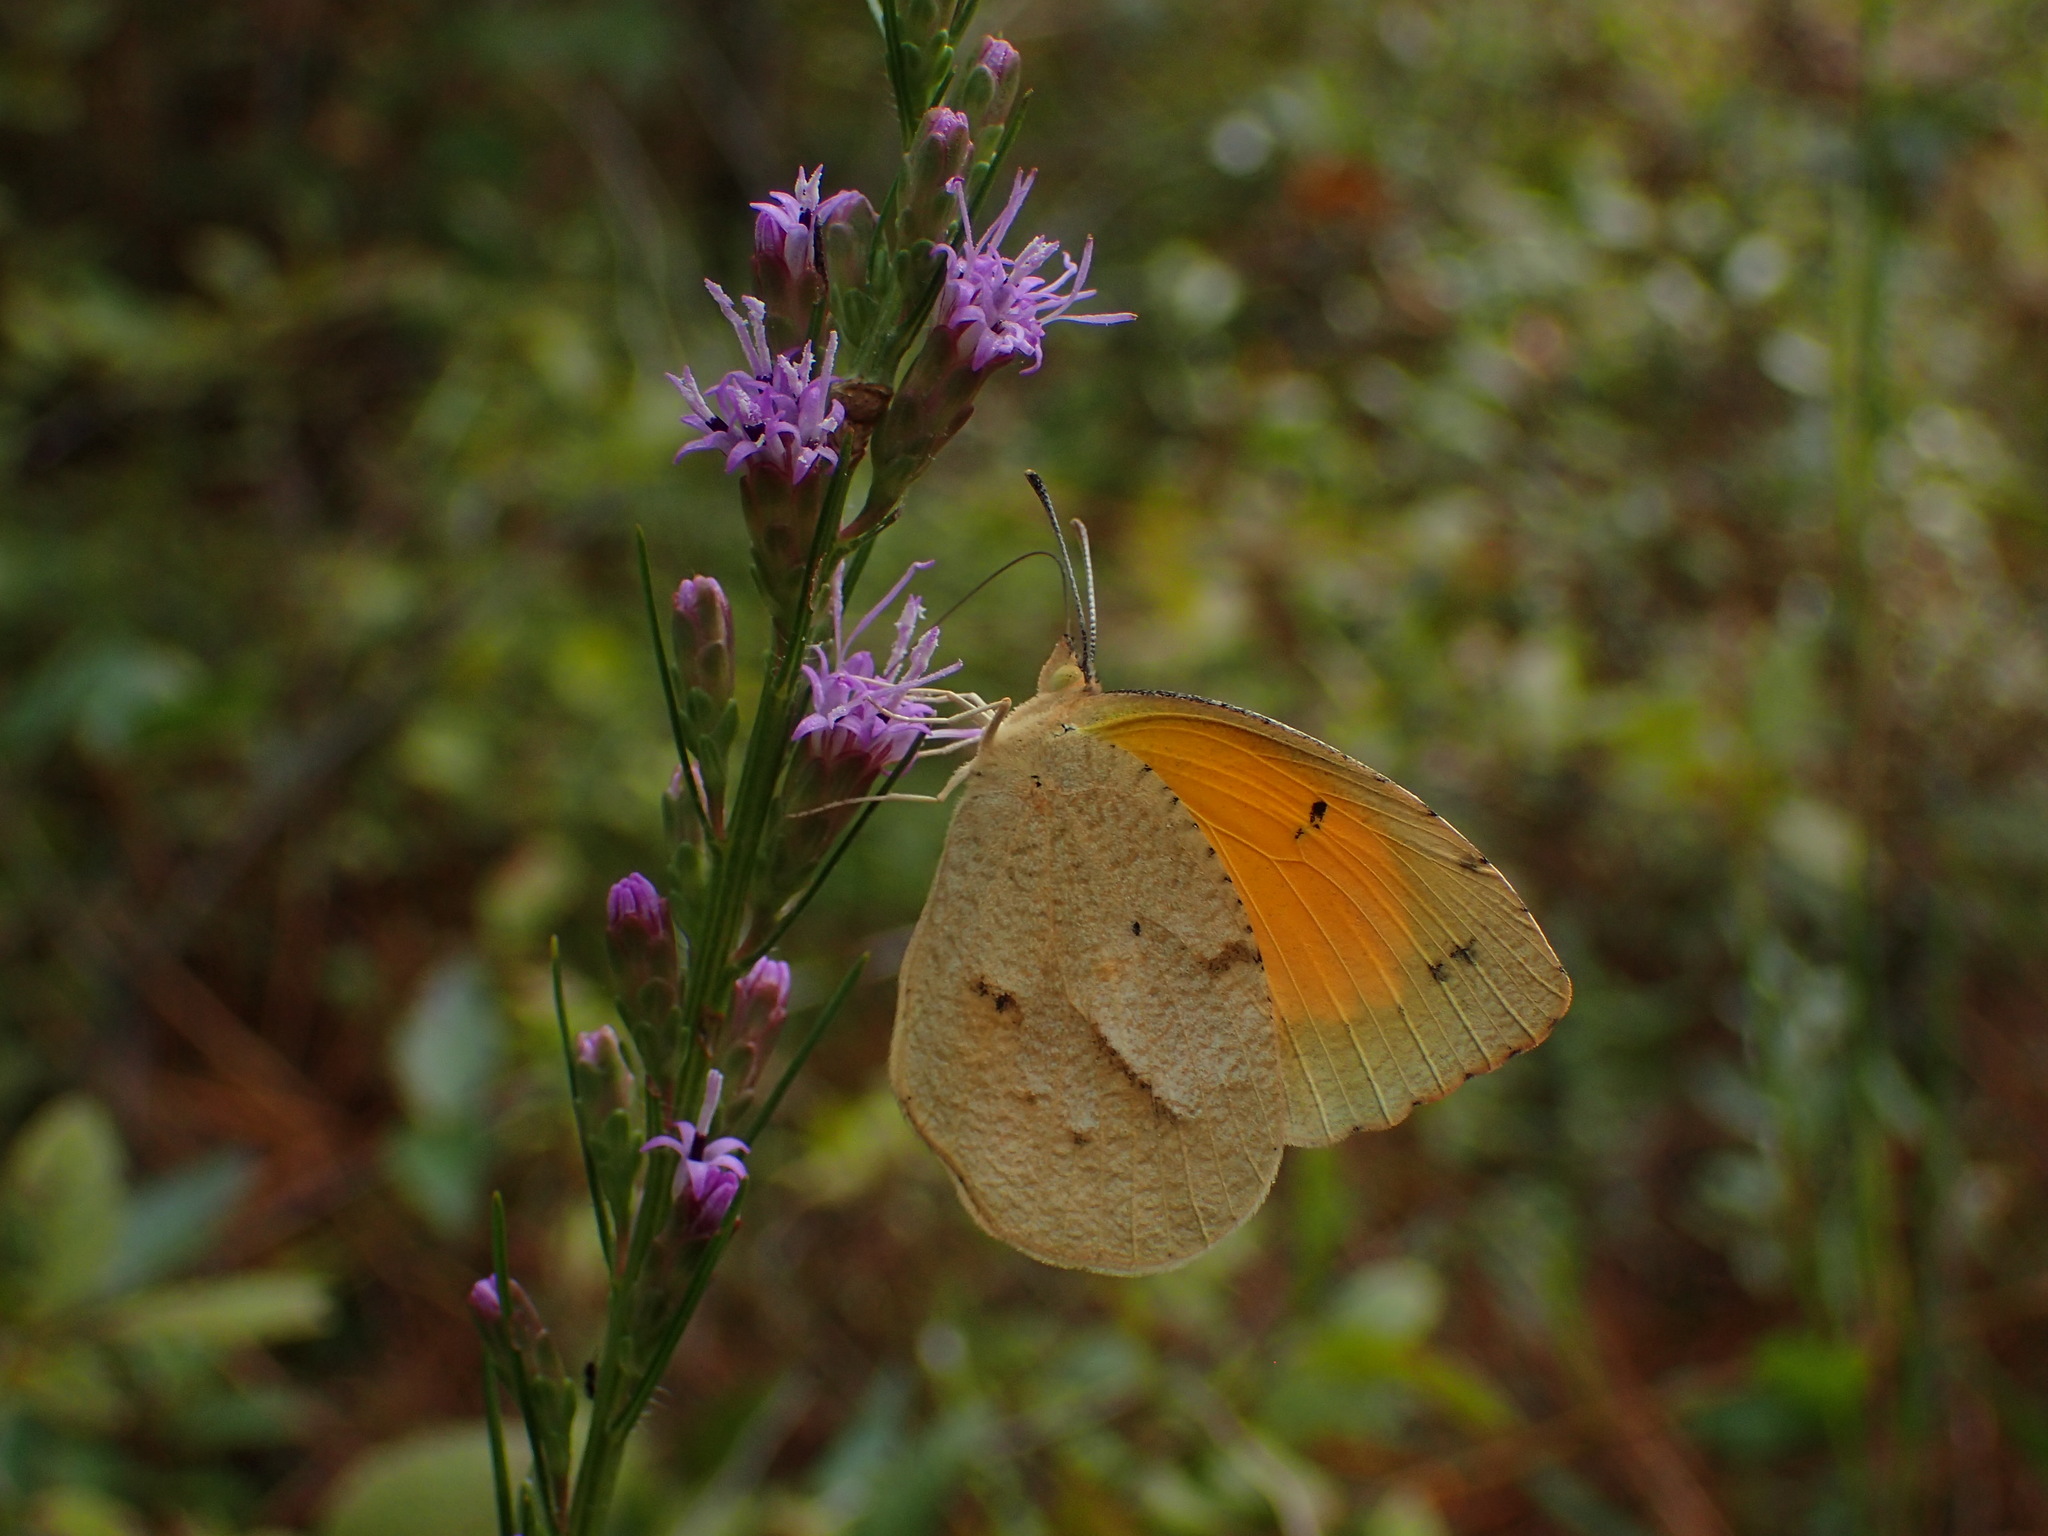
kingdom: Animalia
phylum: Arthropoda
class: Insecta
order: Lepidoptera
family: Pieridae
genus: Abaeis
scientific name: Abaeis nicippe
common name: Sleepy orange
